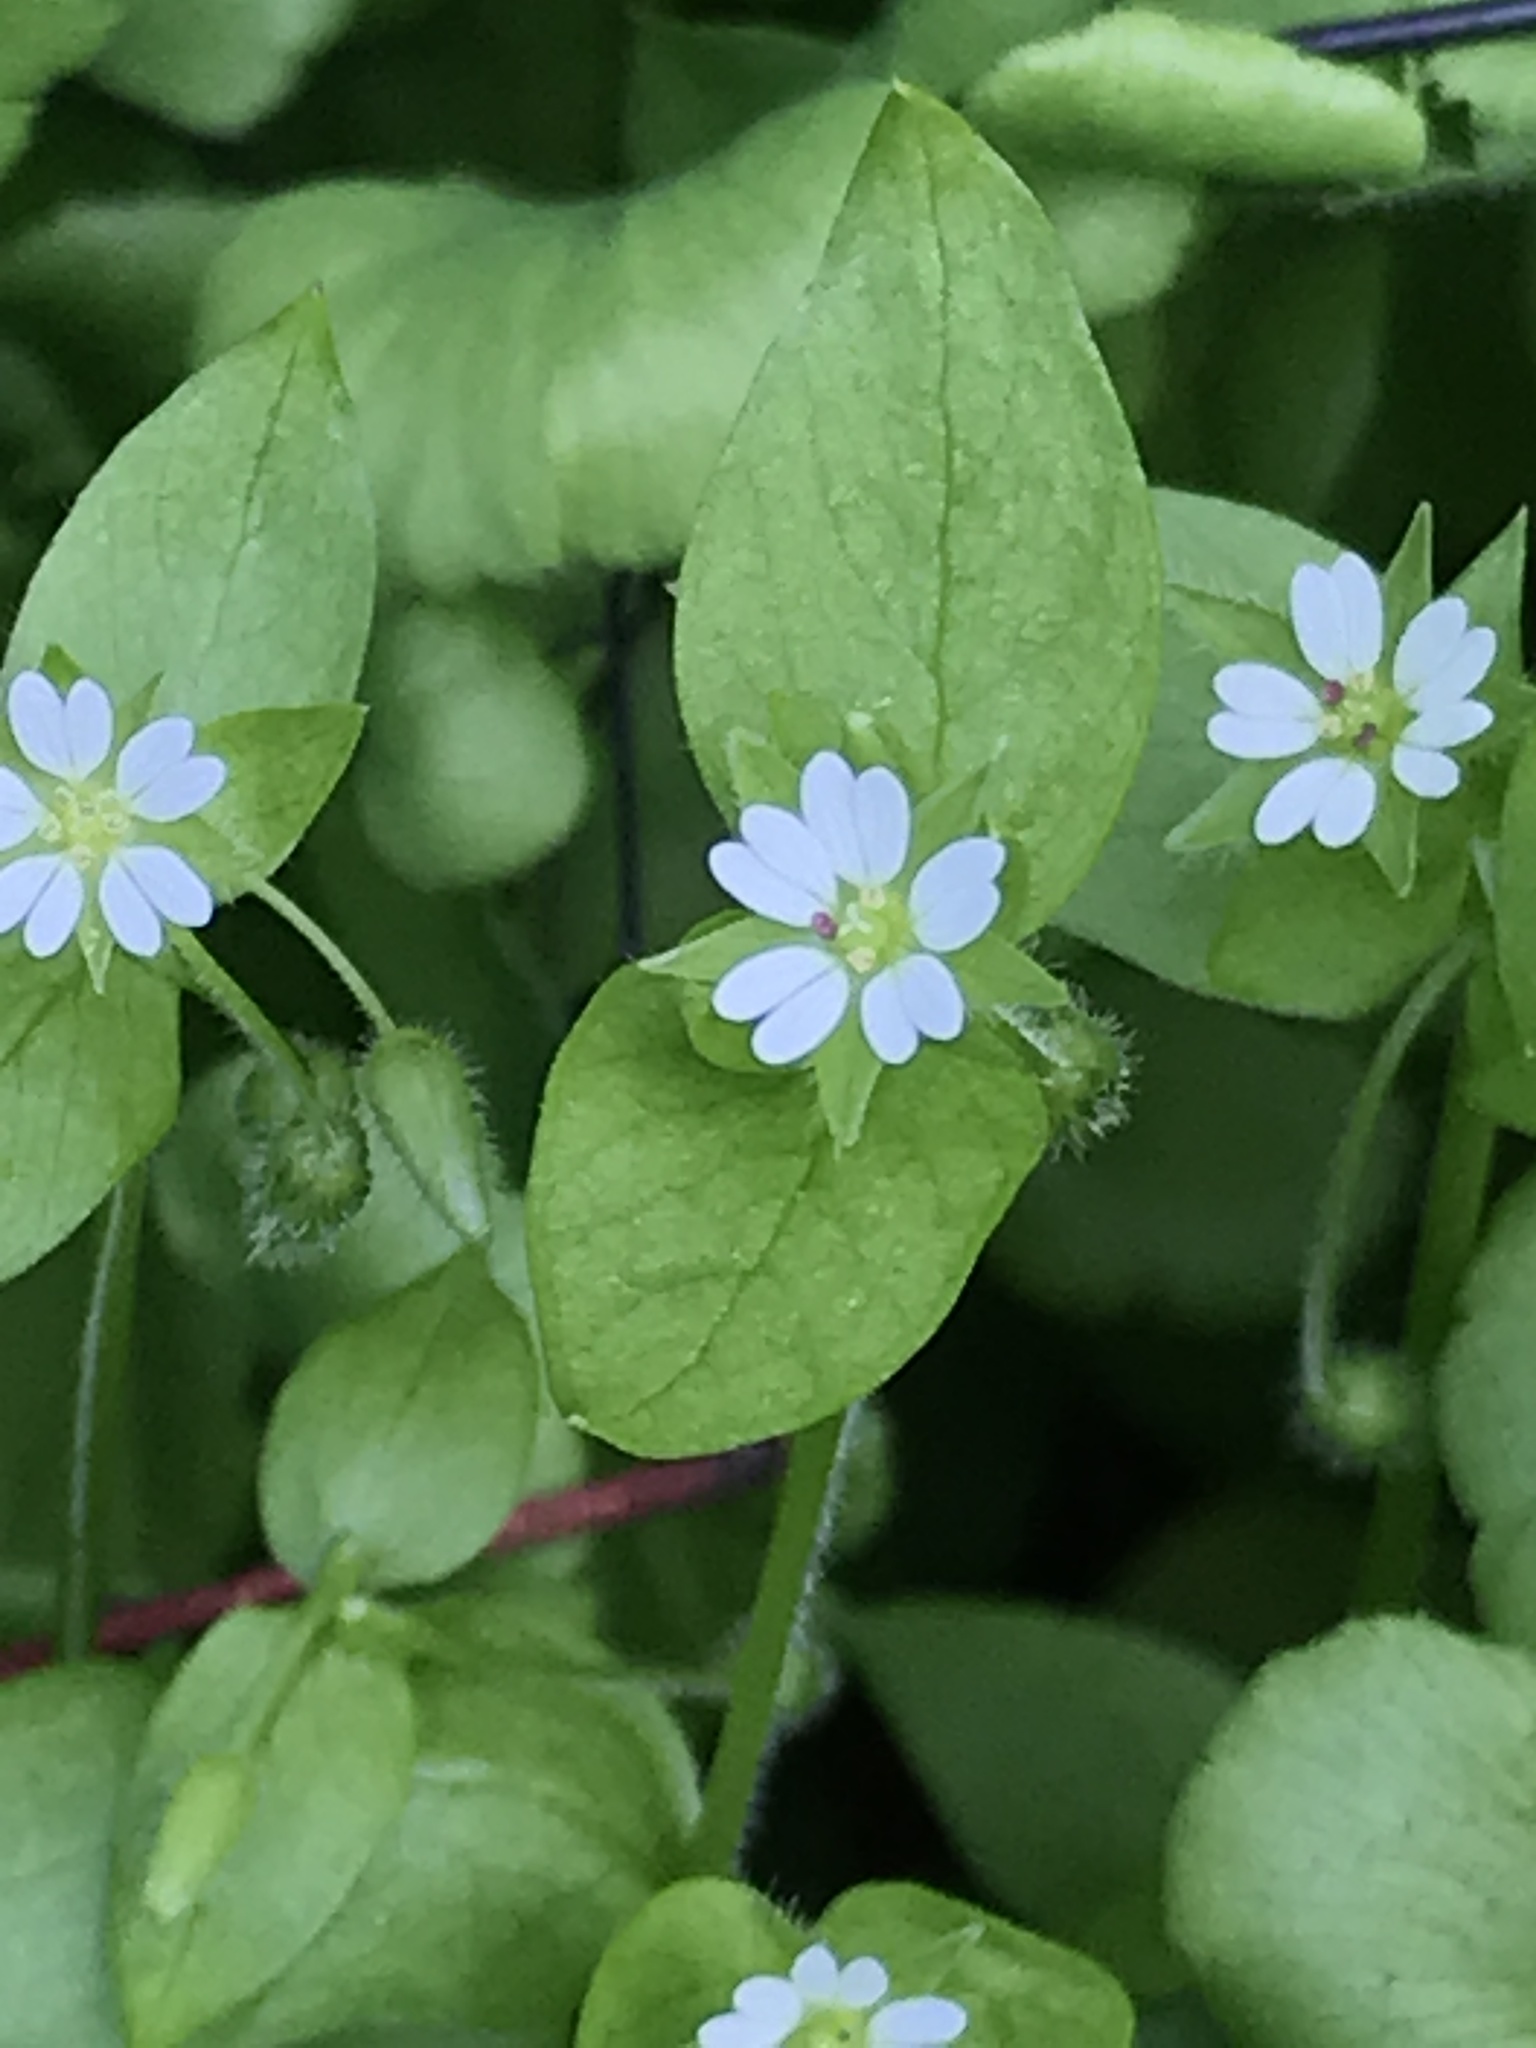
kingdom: Plantae
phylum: Tracheophyta
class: Magnoliopsida
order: Caryophyllales
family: Caryophyllaceae
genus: Stellaria
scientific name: Stellaria media
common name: Common chickweed
